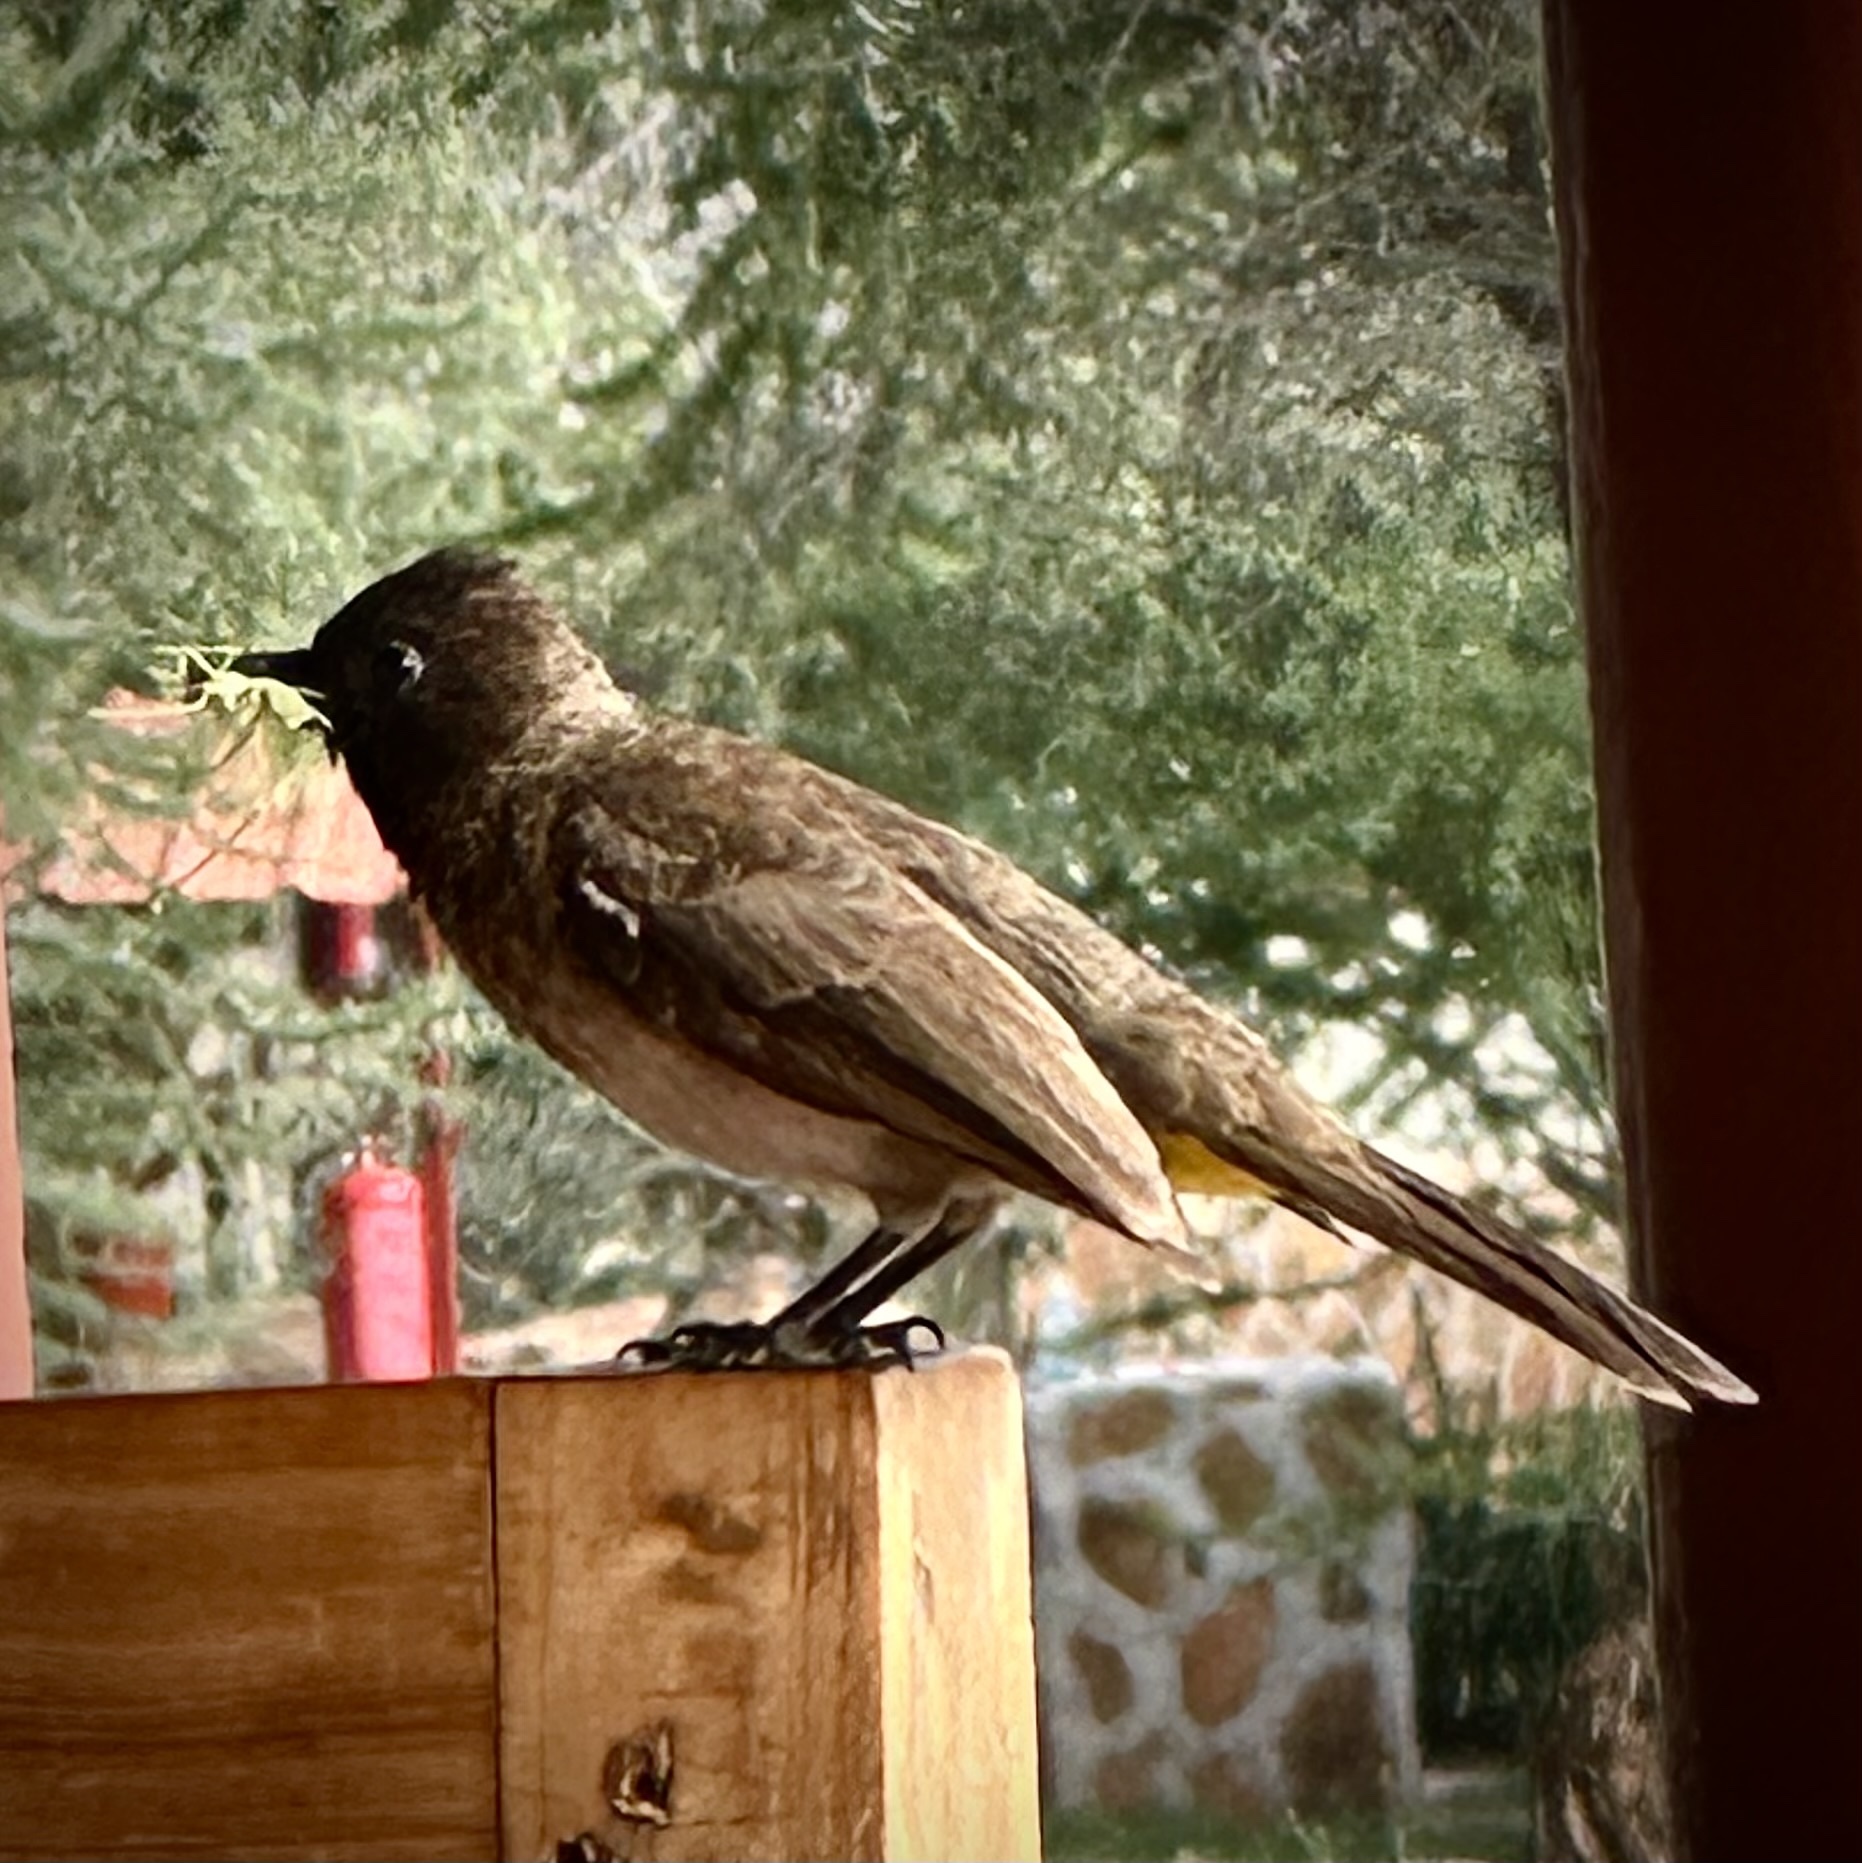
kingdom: Animalia
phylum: Chordata
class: Aves
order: Passeriformes
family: Pycnonotidae
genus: Pycnonotus
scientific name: Pycnonotus barbatus
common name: Common bulbul
